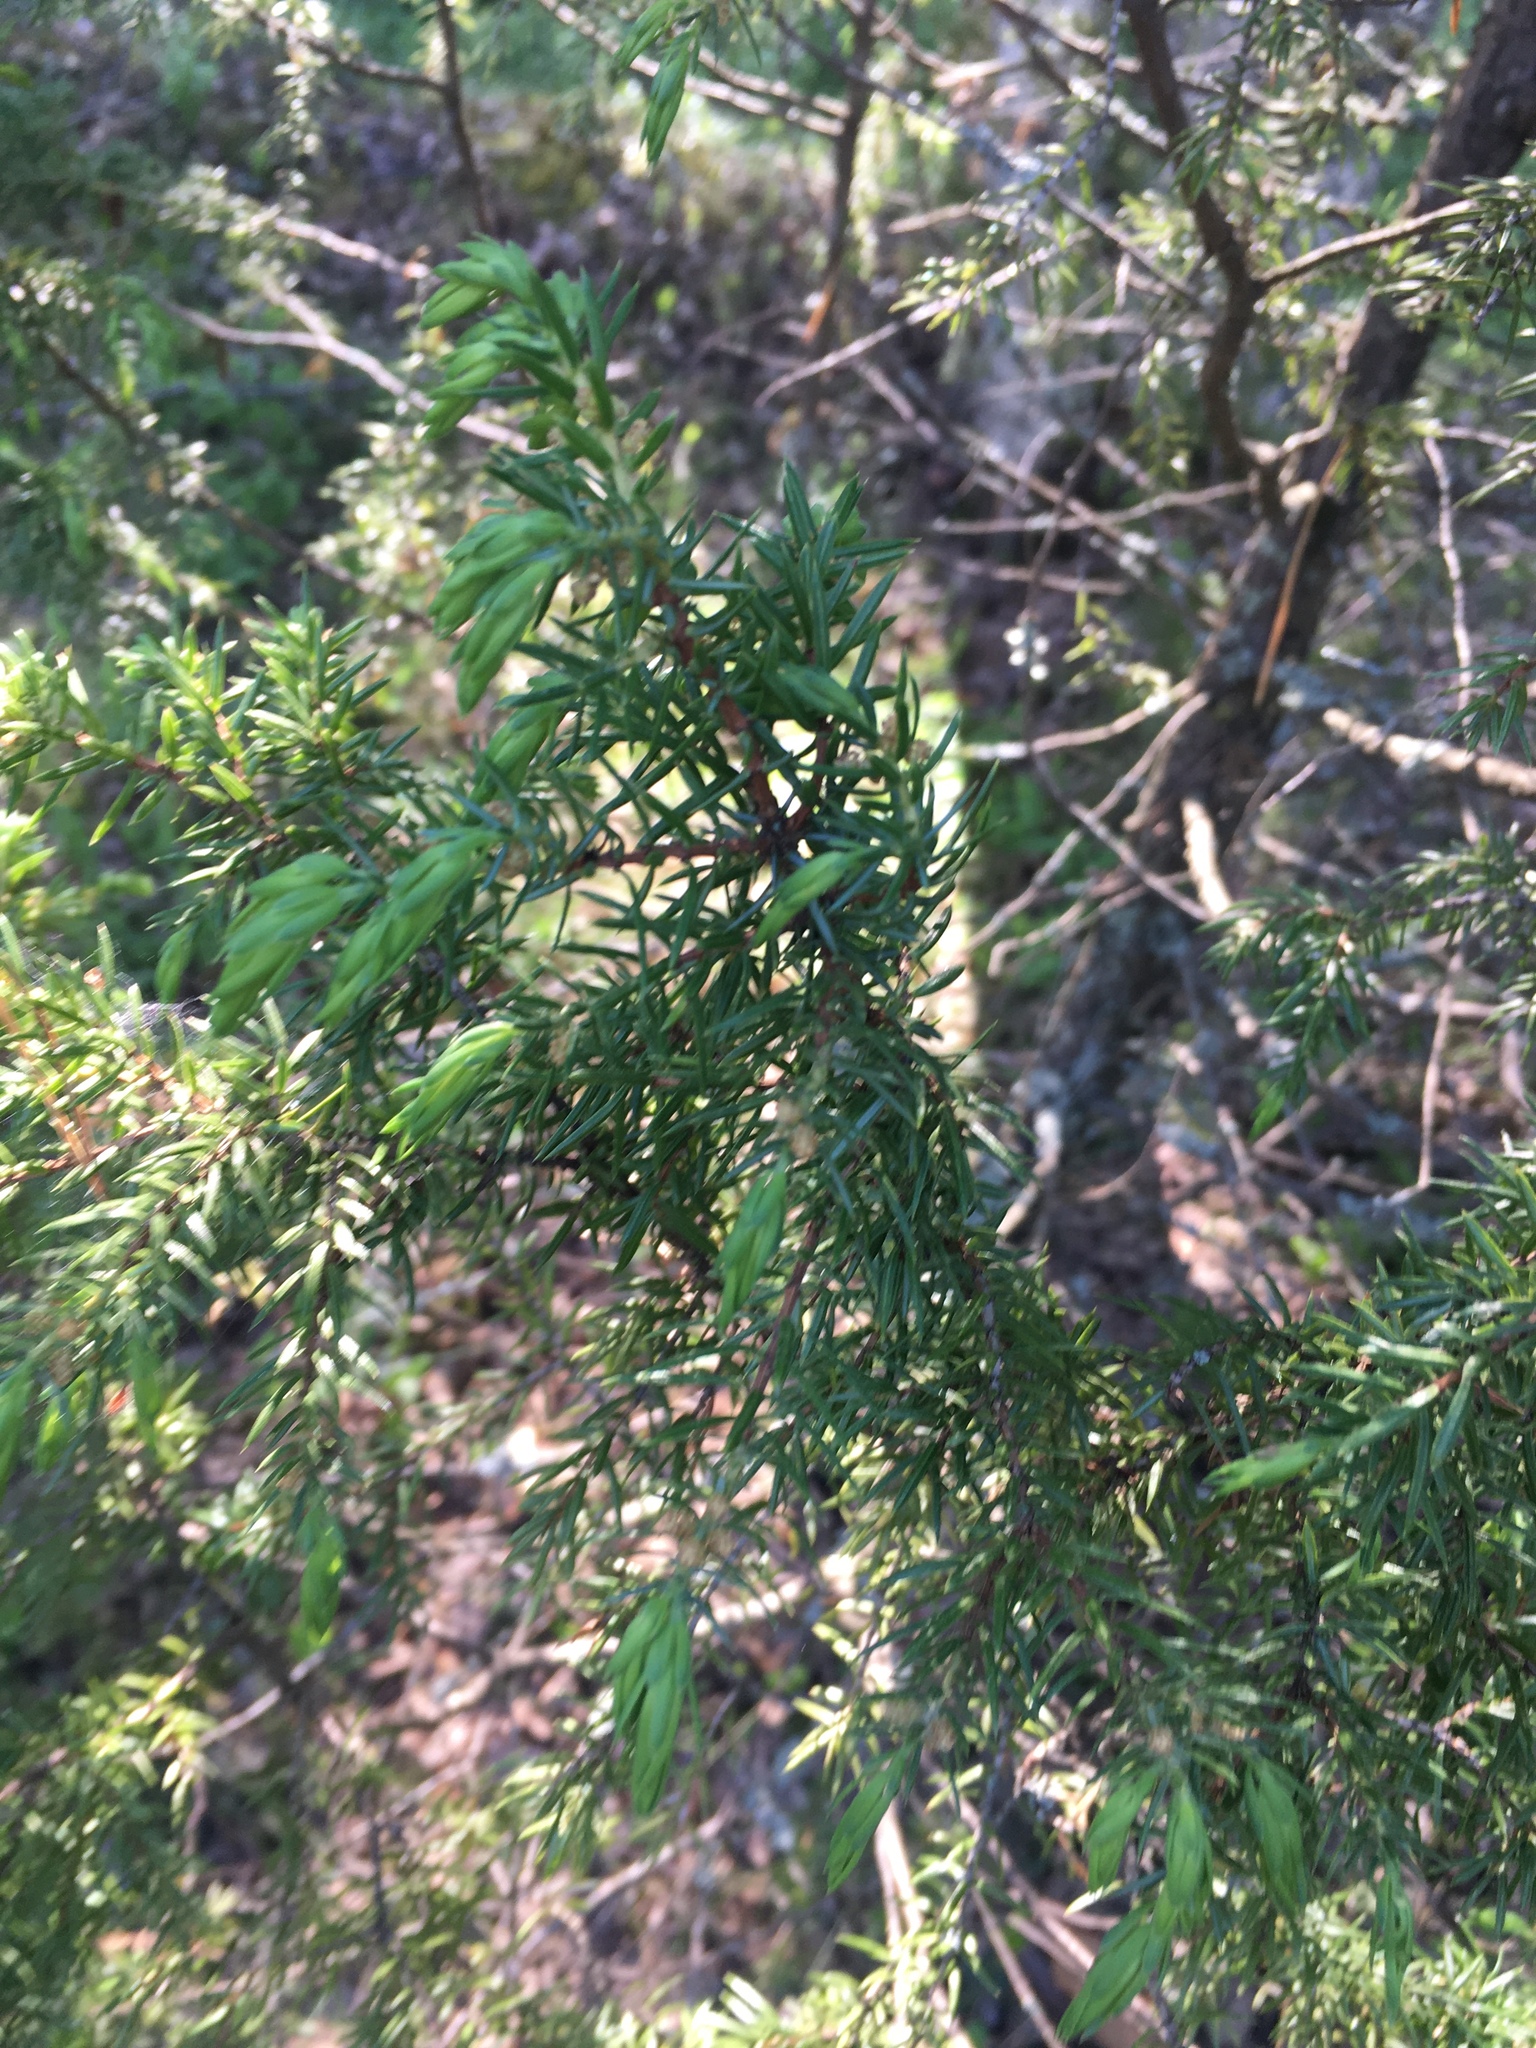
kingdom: Plantae
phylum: Tracheophyta
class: Pinopsida
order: Pinales
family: Cupressaceae
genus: Juniperus
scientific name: Juniperus communis
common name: Common juniper
